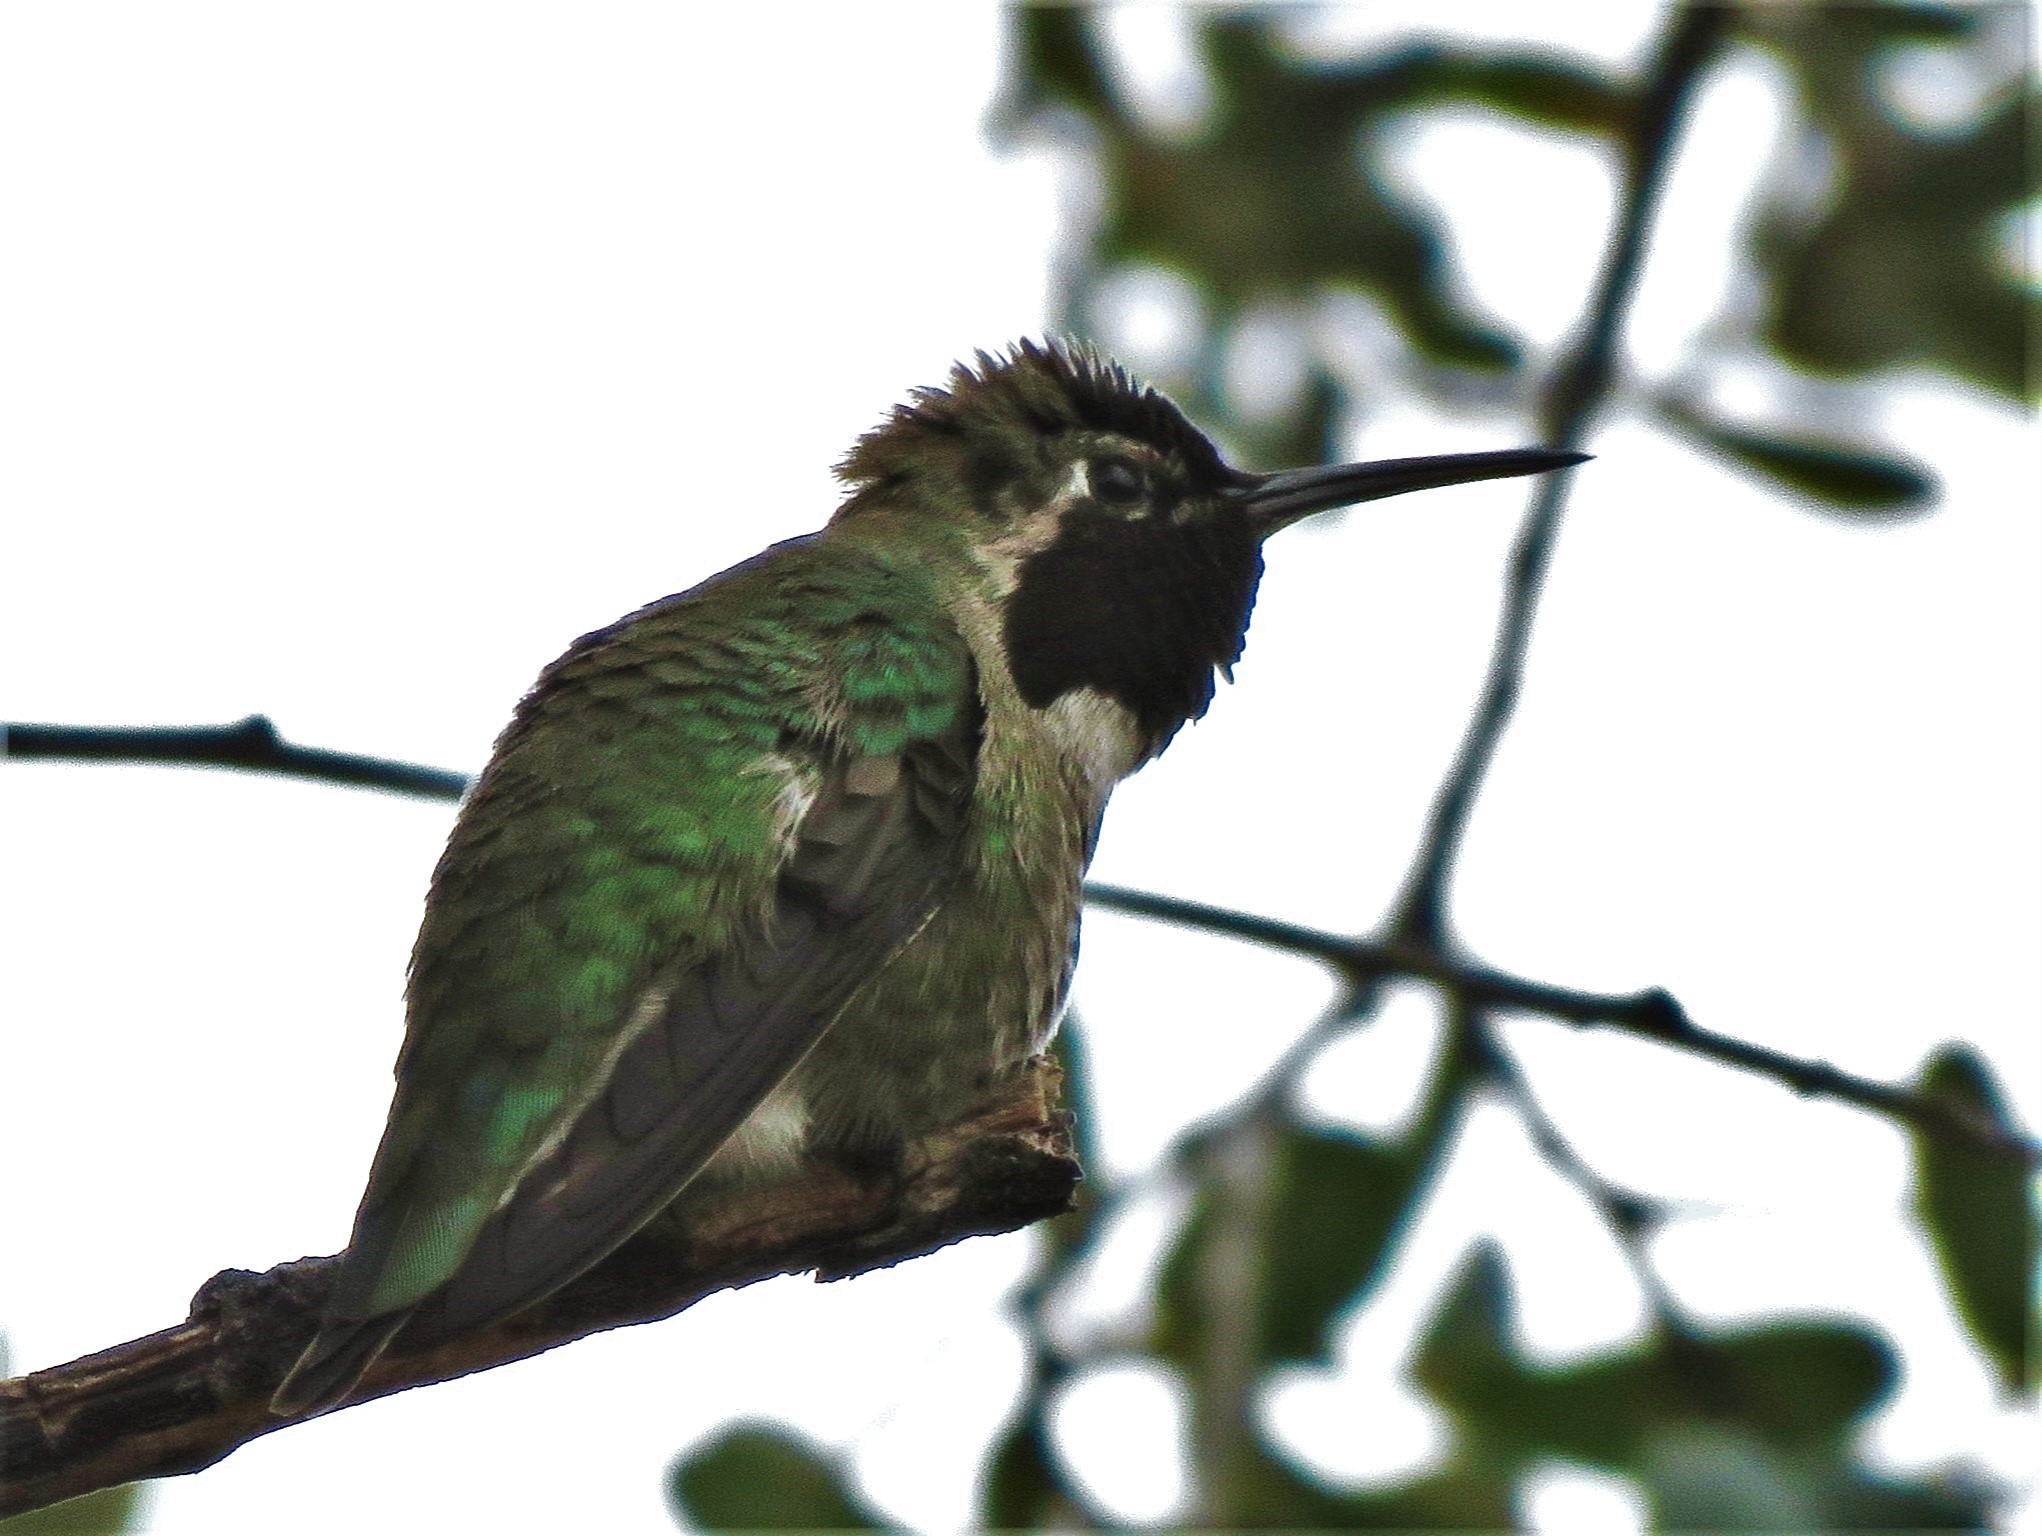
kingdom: Animalia
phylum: Chordata
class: Aves
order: Apodiformes
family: Trochilidae
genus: Calypte
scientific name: Calypte anna
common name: Anna's hummingbird
